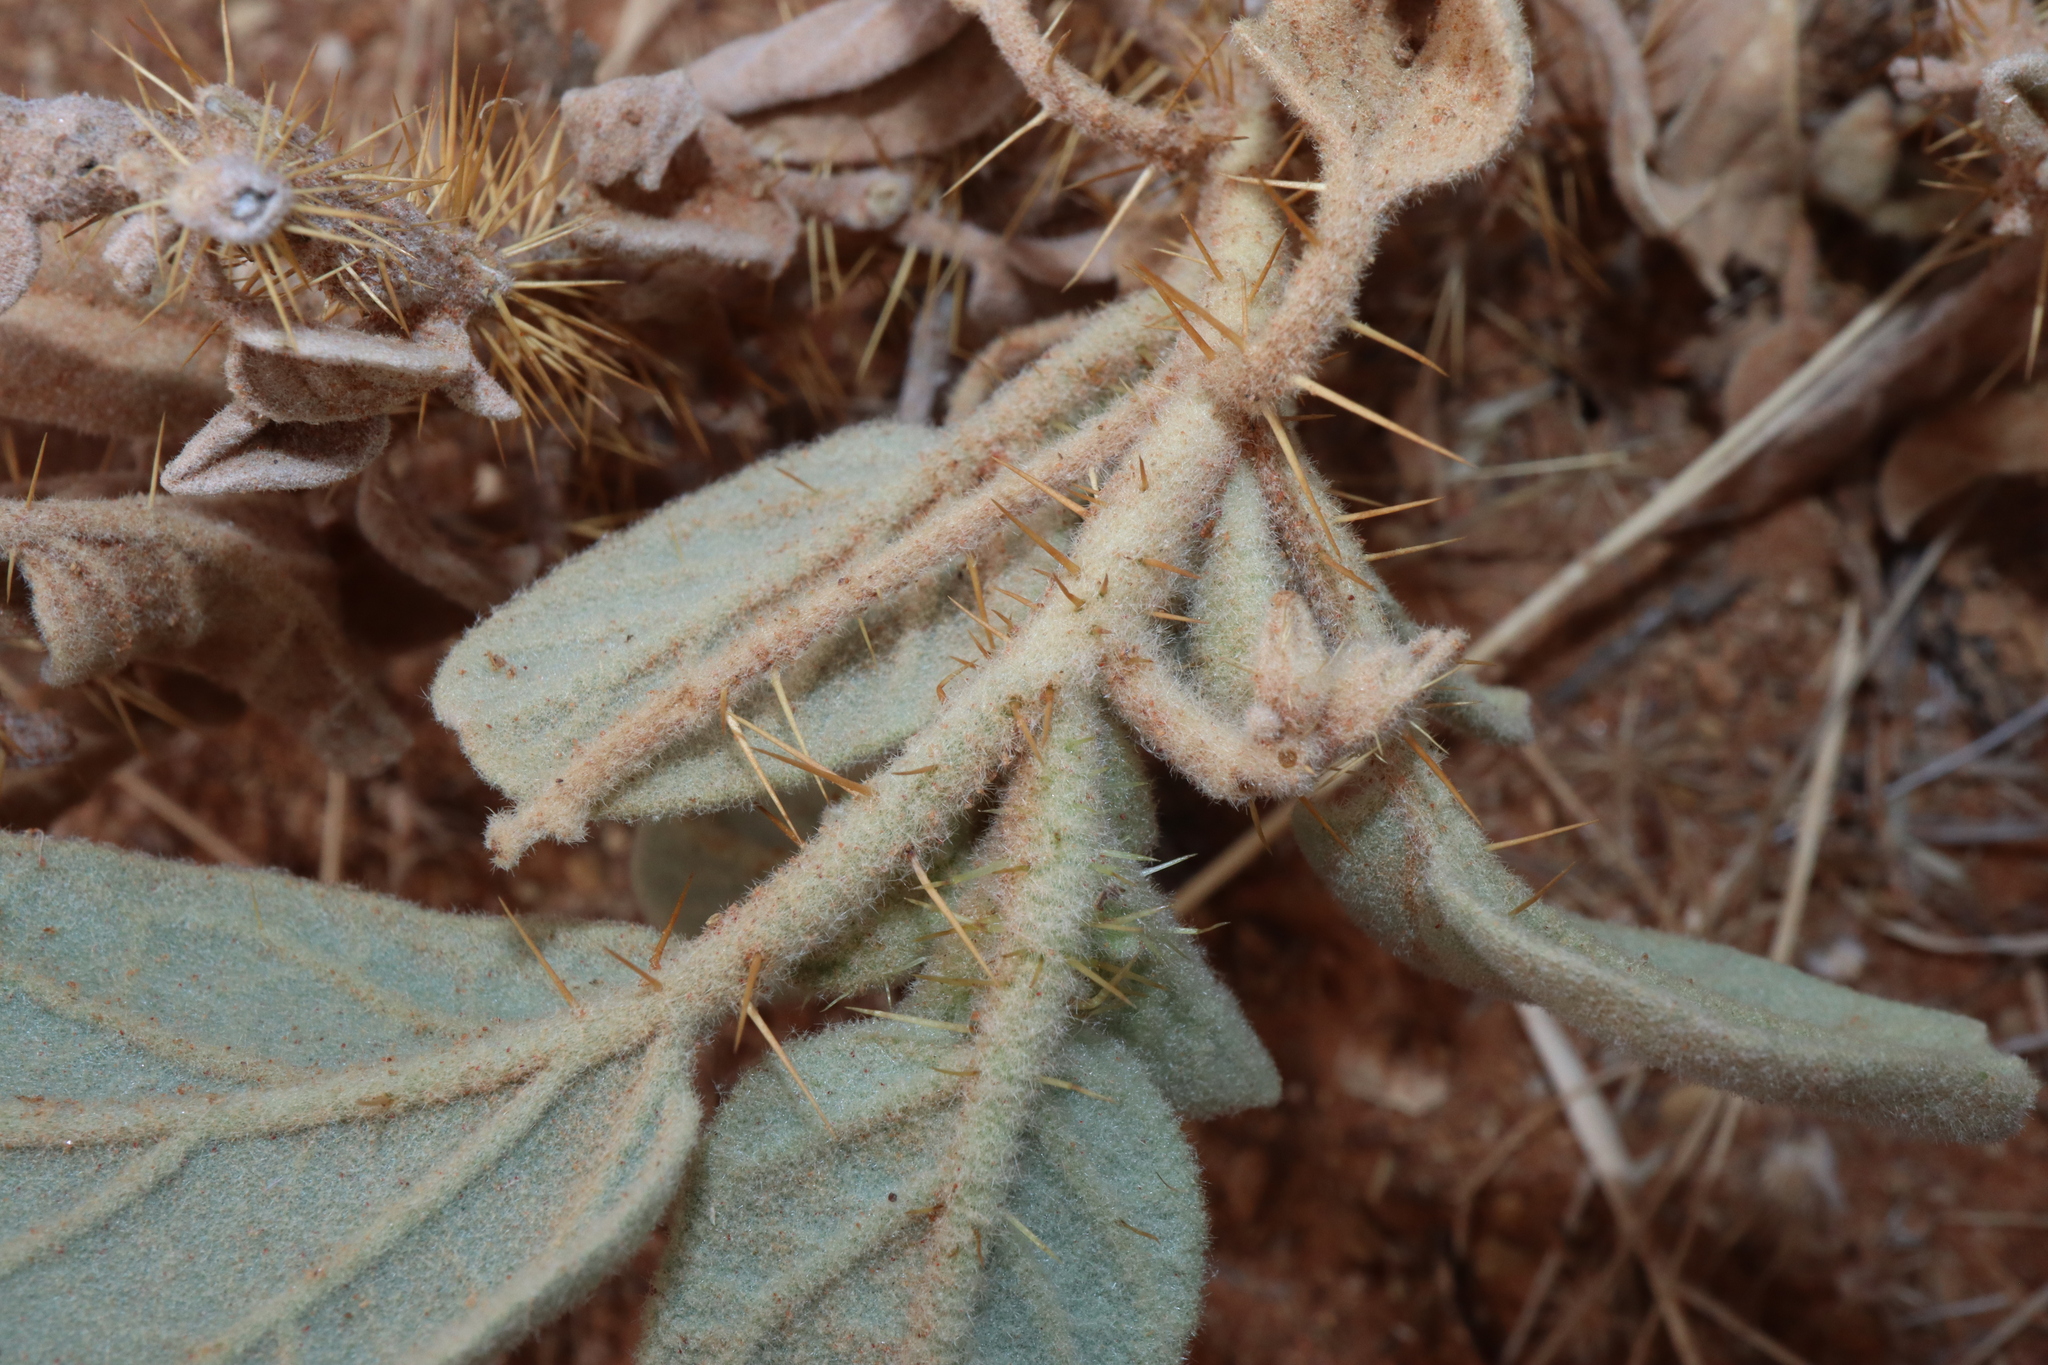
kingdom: Plantae
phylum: Tracheophyta
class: Magnoliopsida
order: Solanales
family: Solanaceae
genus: Solanum
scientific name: Solanum ellipticum
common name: Potato-bush
